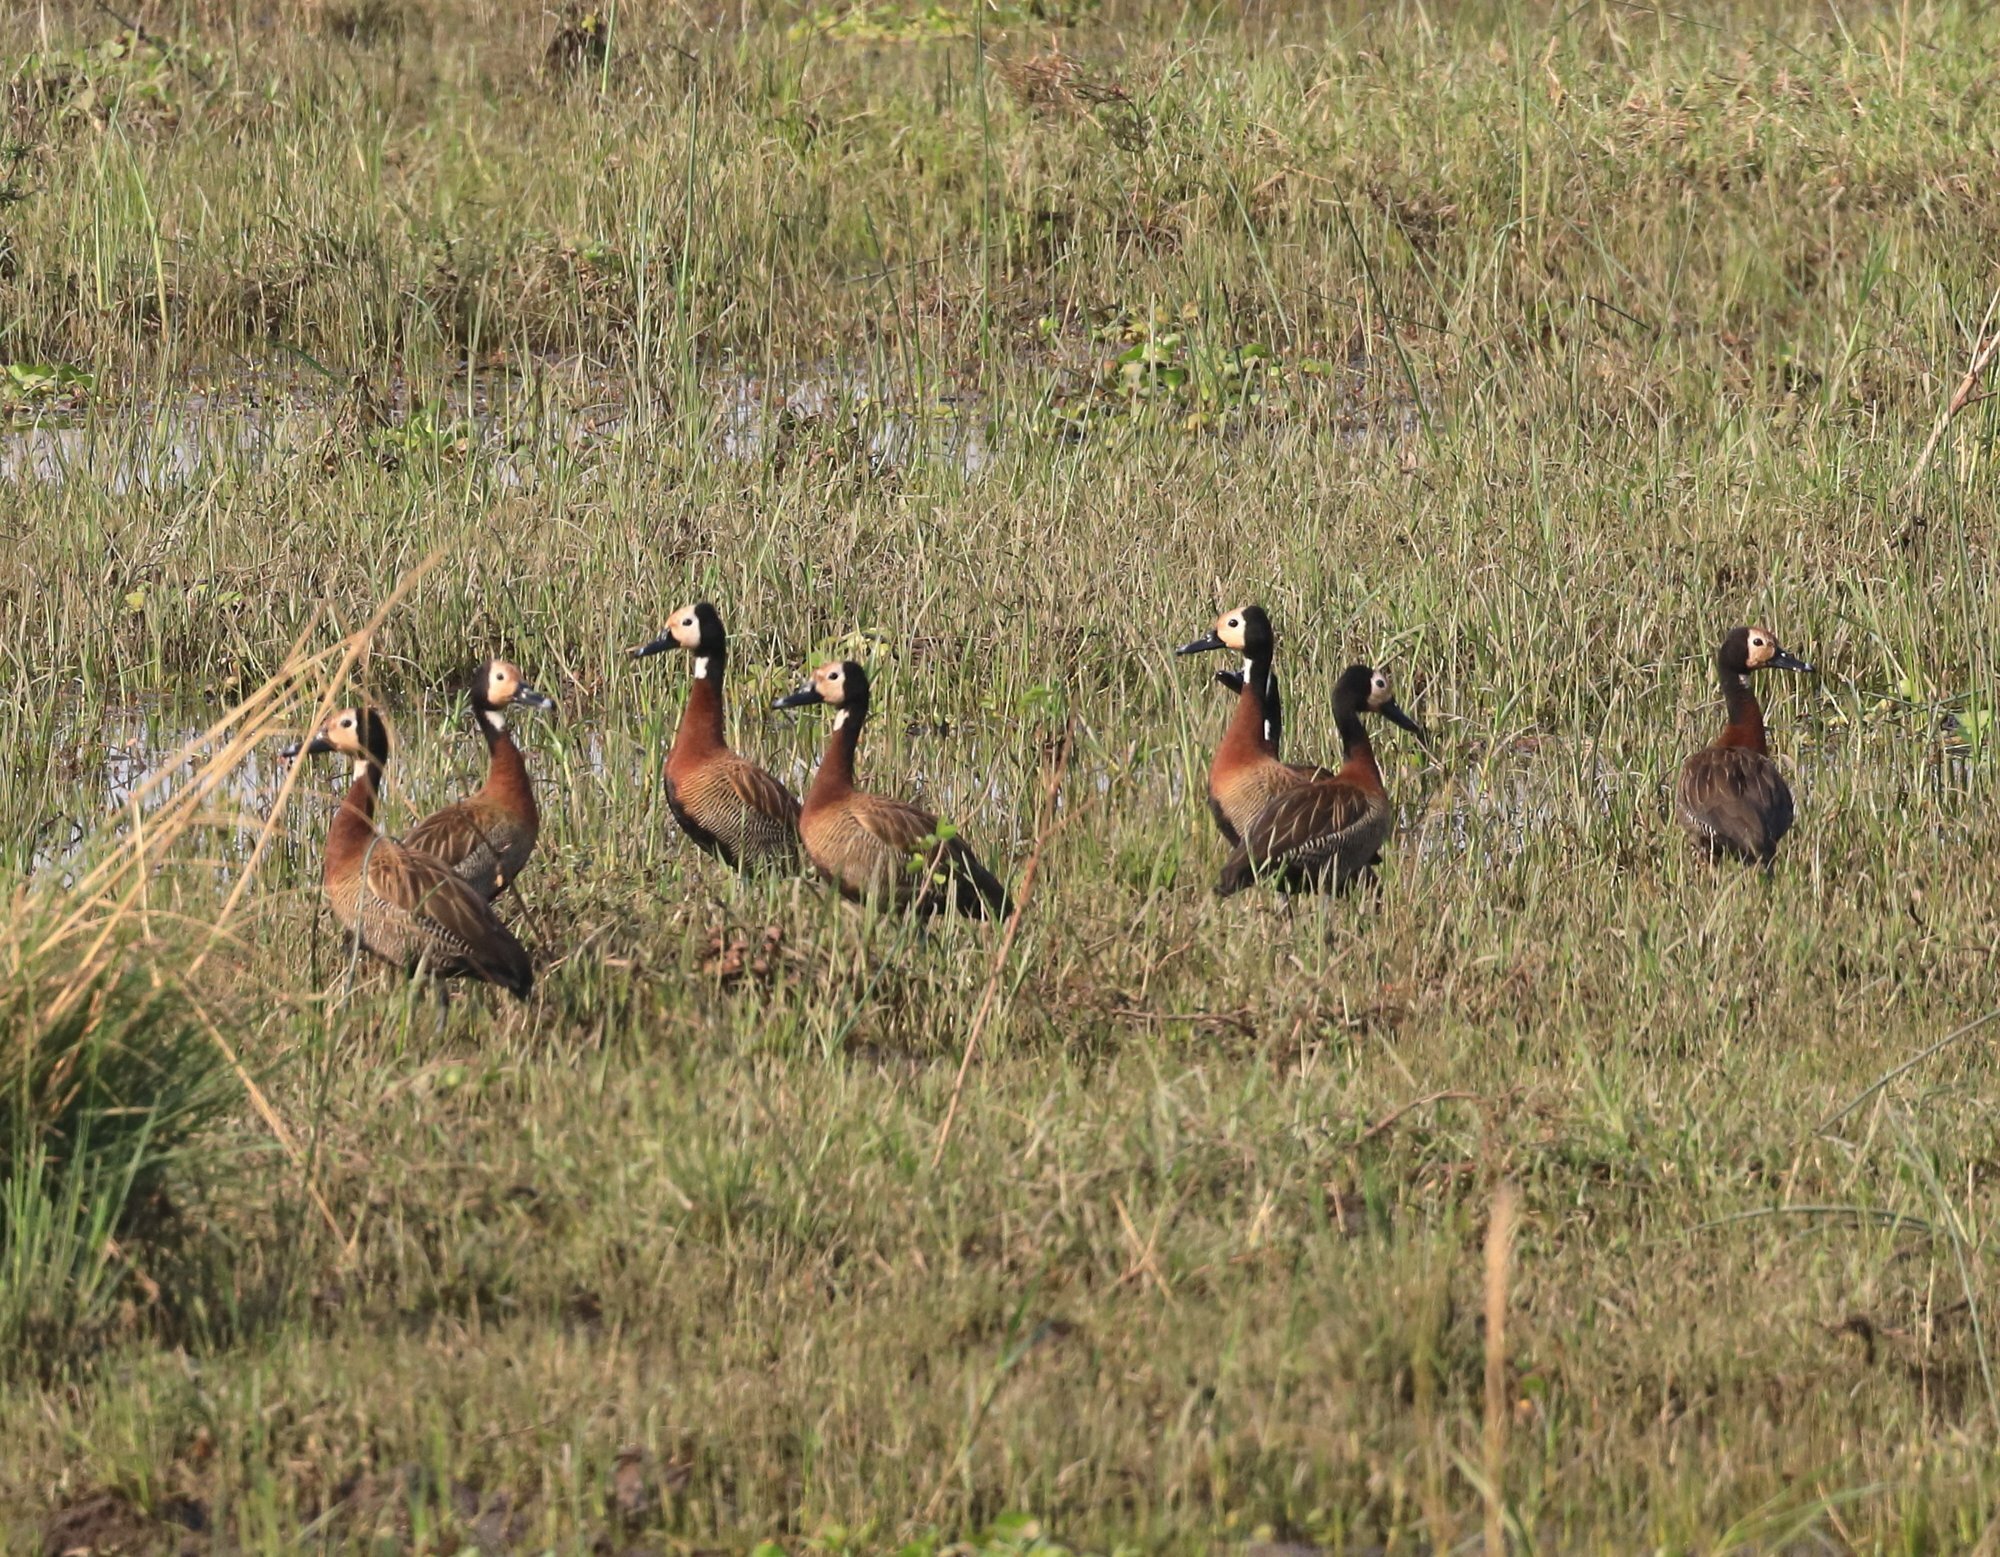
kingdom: Animalia
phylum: Chordata
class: Aves
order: Anseriformes
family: Anatidae
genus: Dendrocygna
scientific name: Dendrocygna viduata
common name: White-faced whistling duck
